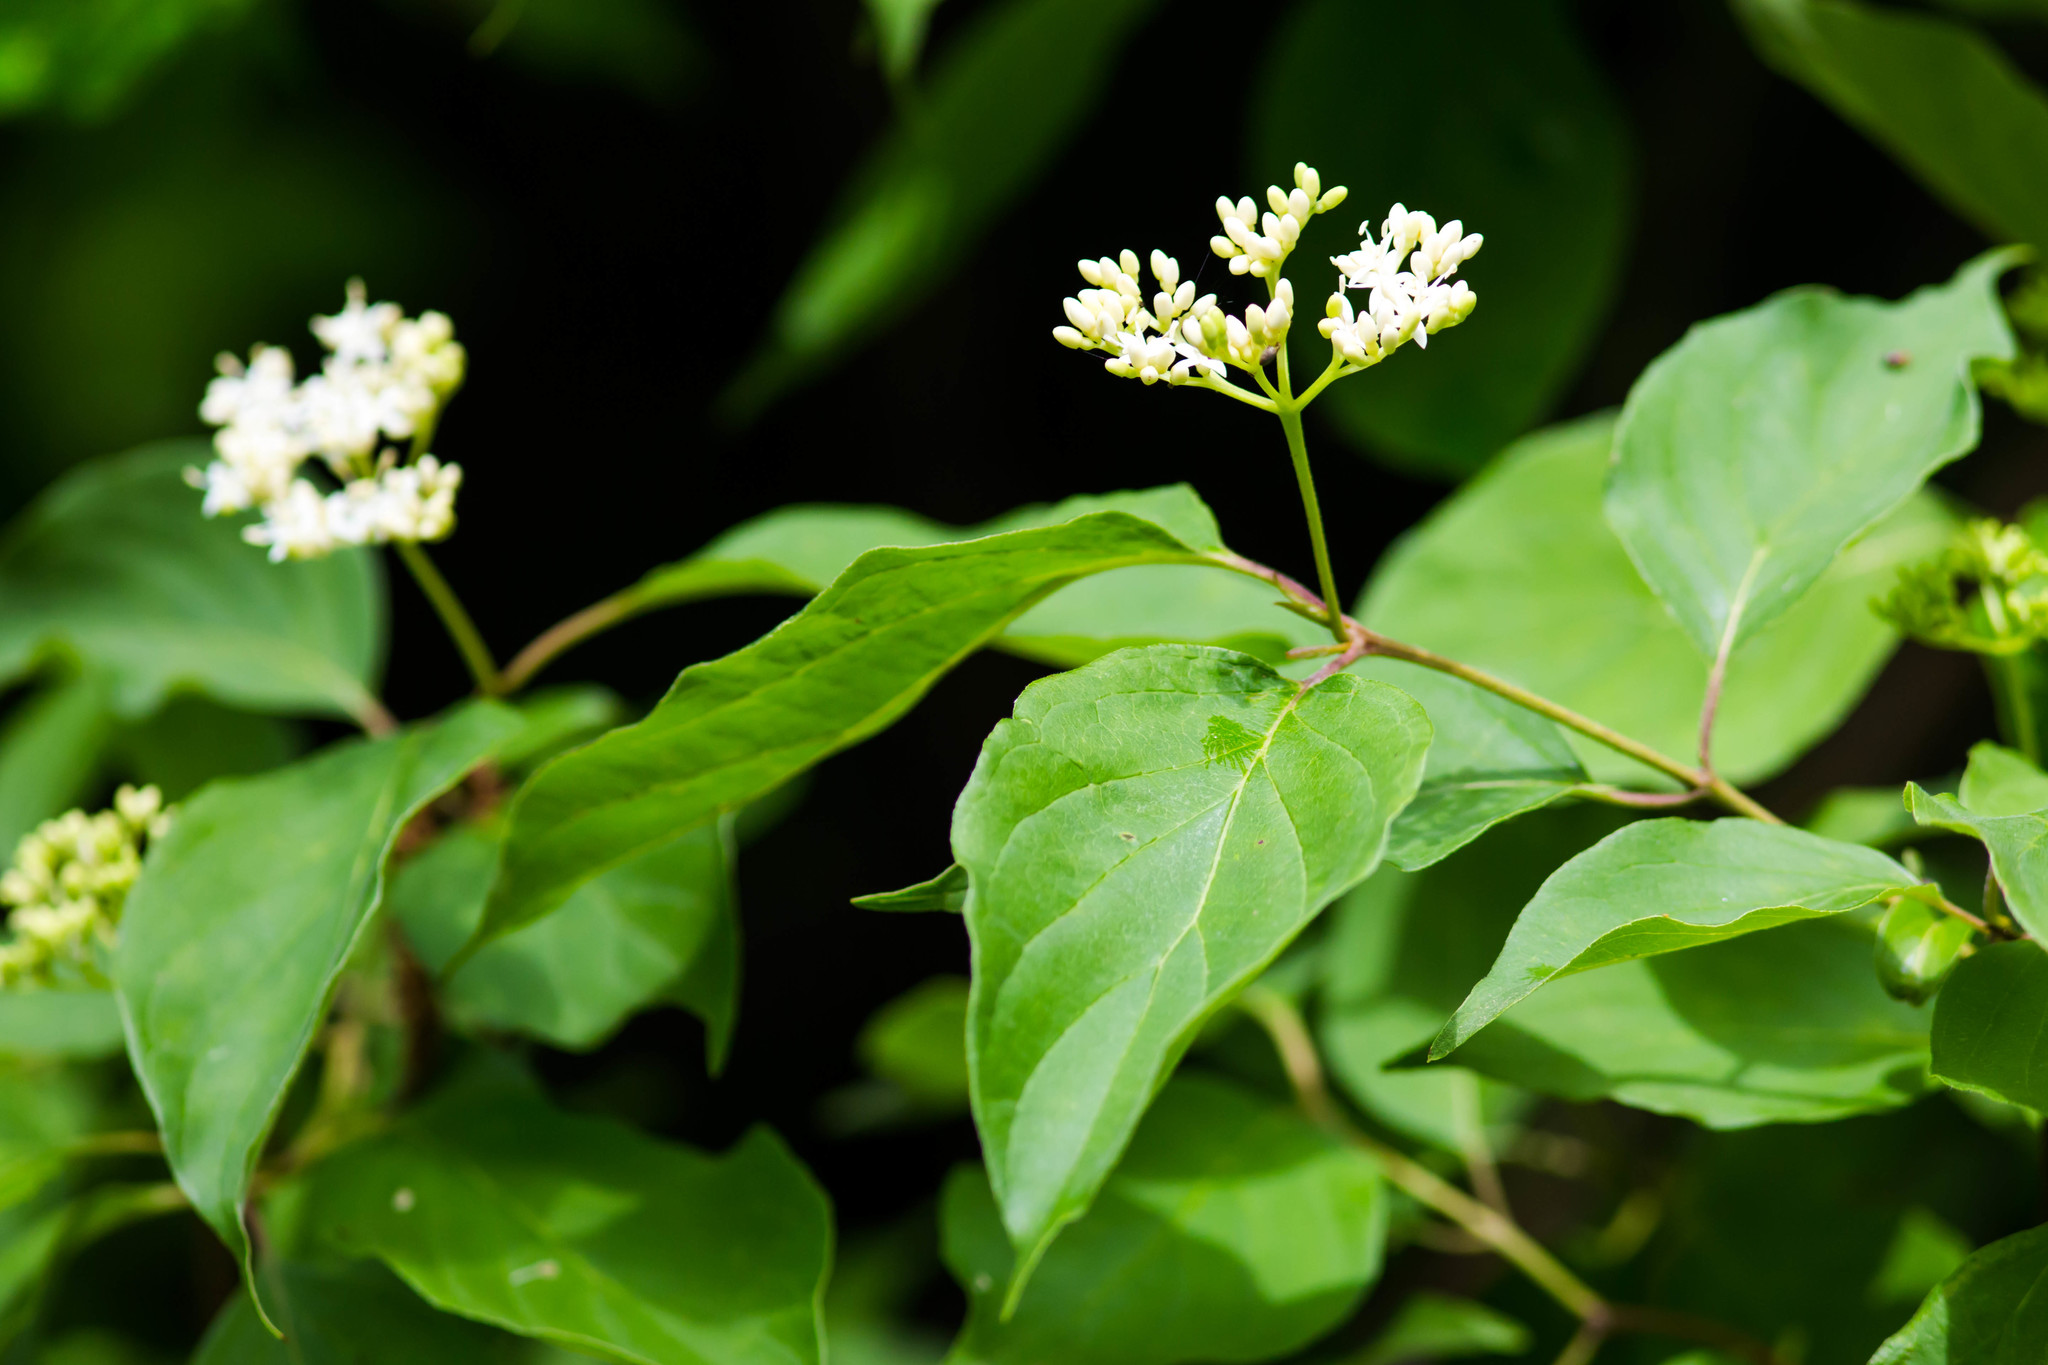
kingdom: Plantae
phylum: Tracheophyta
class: Magnoliopsida
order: Cornales
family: Cornaceae
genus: Cornus
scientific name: Cornus foemina
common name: Swamp dogwood
